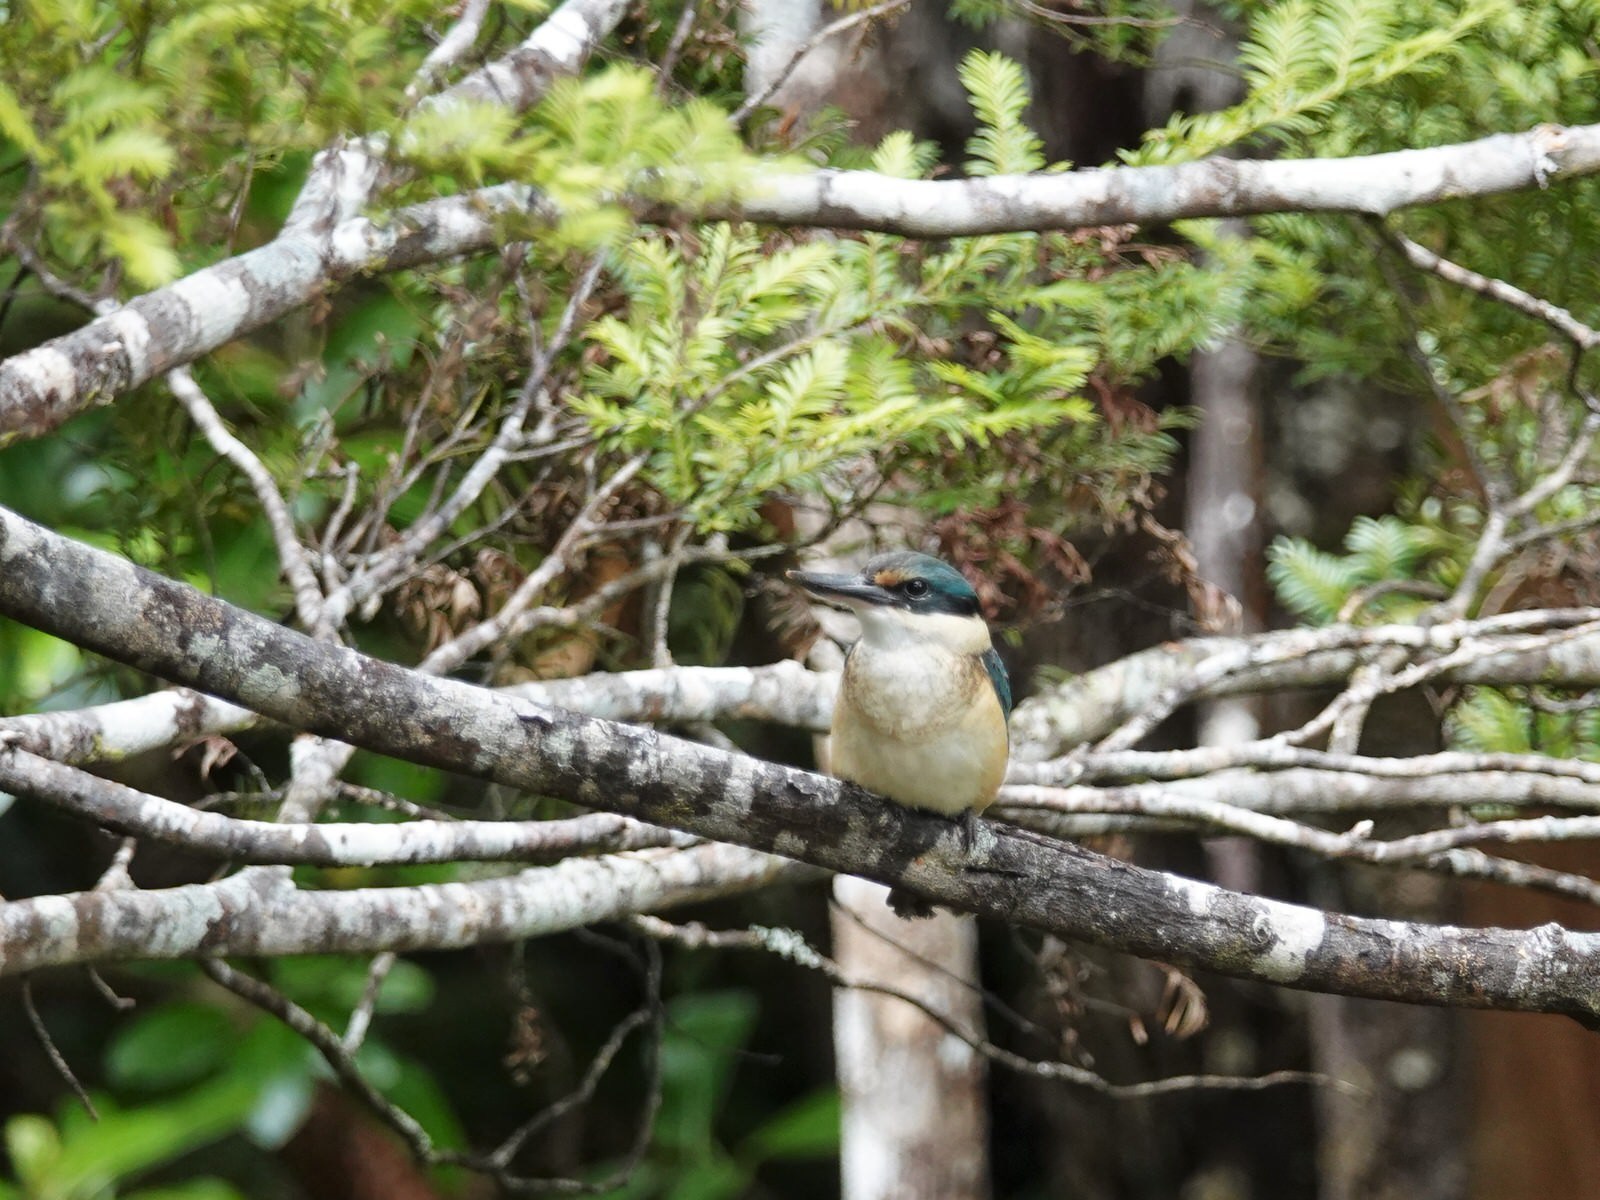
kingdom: Animalia
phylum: Chordata
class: Aves
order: Coraciiformes
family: Alcedinidae
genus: Todiramphus
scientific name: Todiramphus sanctus
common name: Sacred kingfisher
